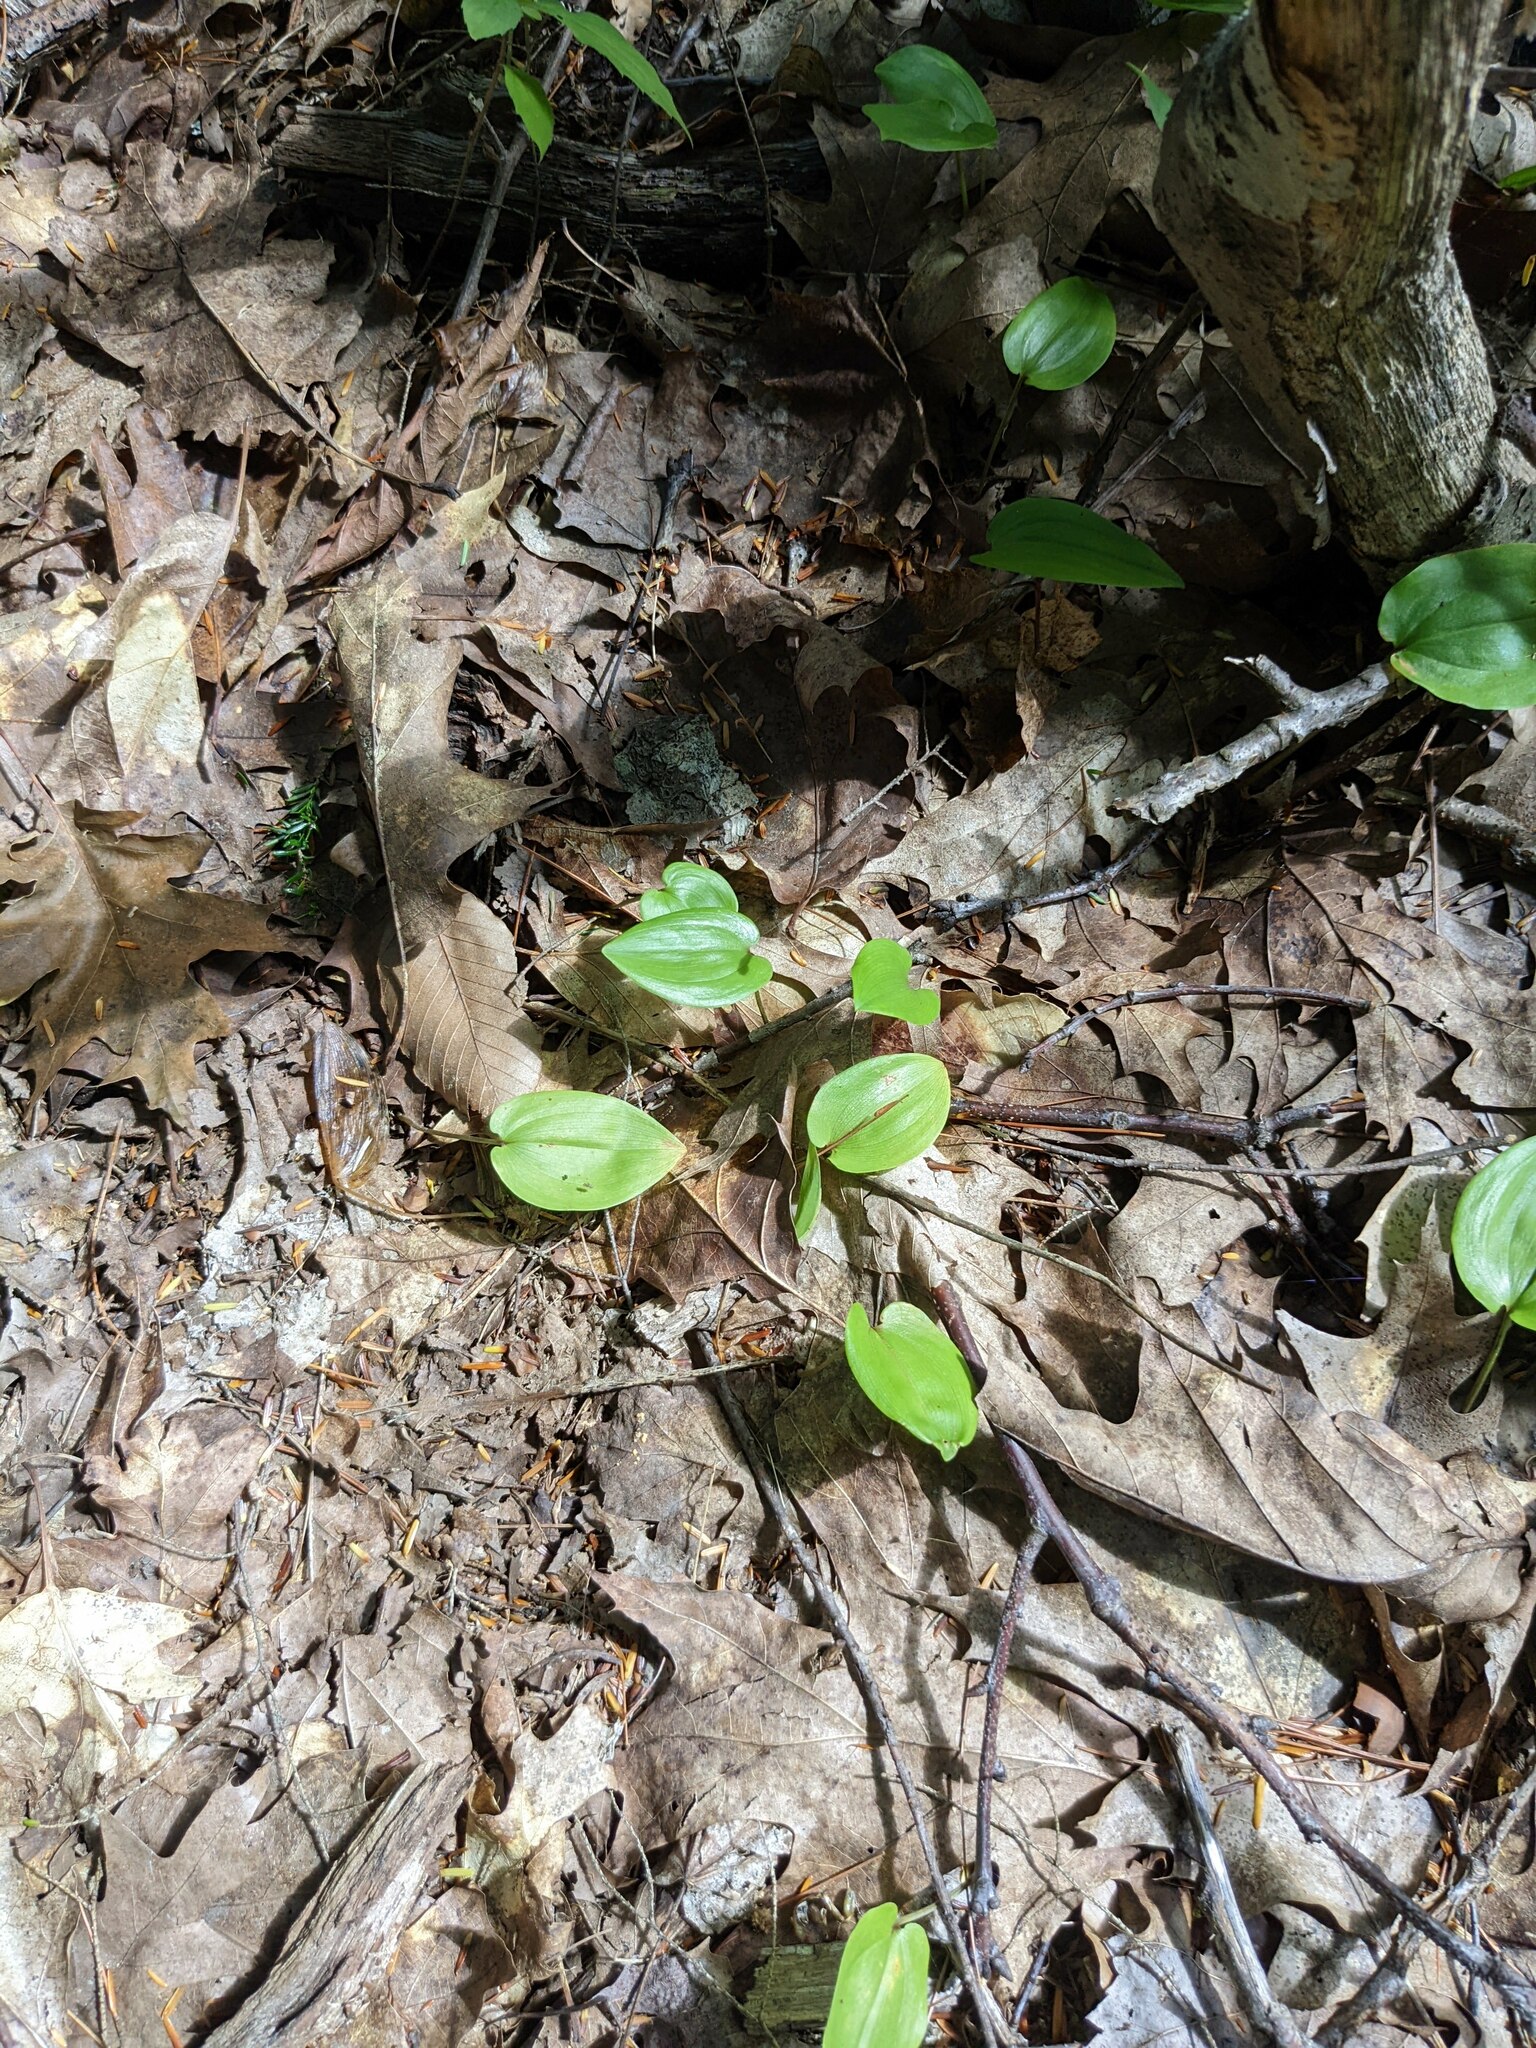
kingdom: Plantae
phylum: Tracheophyta
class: Liliopsida
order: Asparagales
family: Asparagaceae
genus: Maianthemum
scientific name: Maianthemum canadense
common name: False lily-of-the-valley
